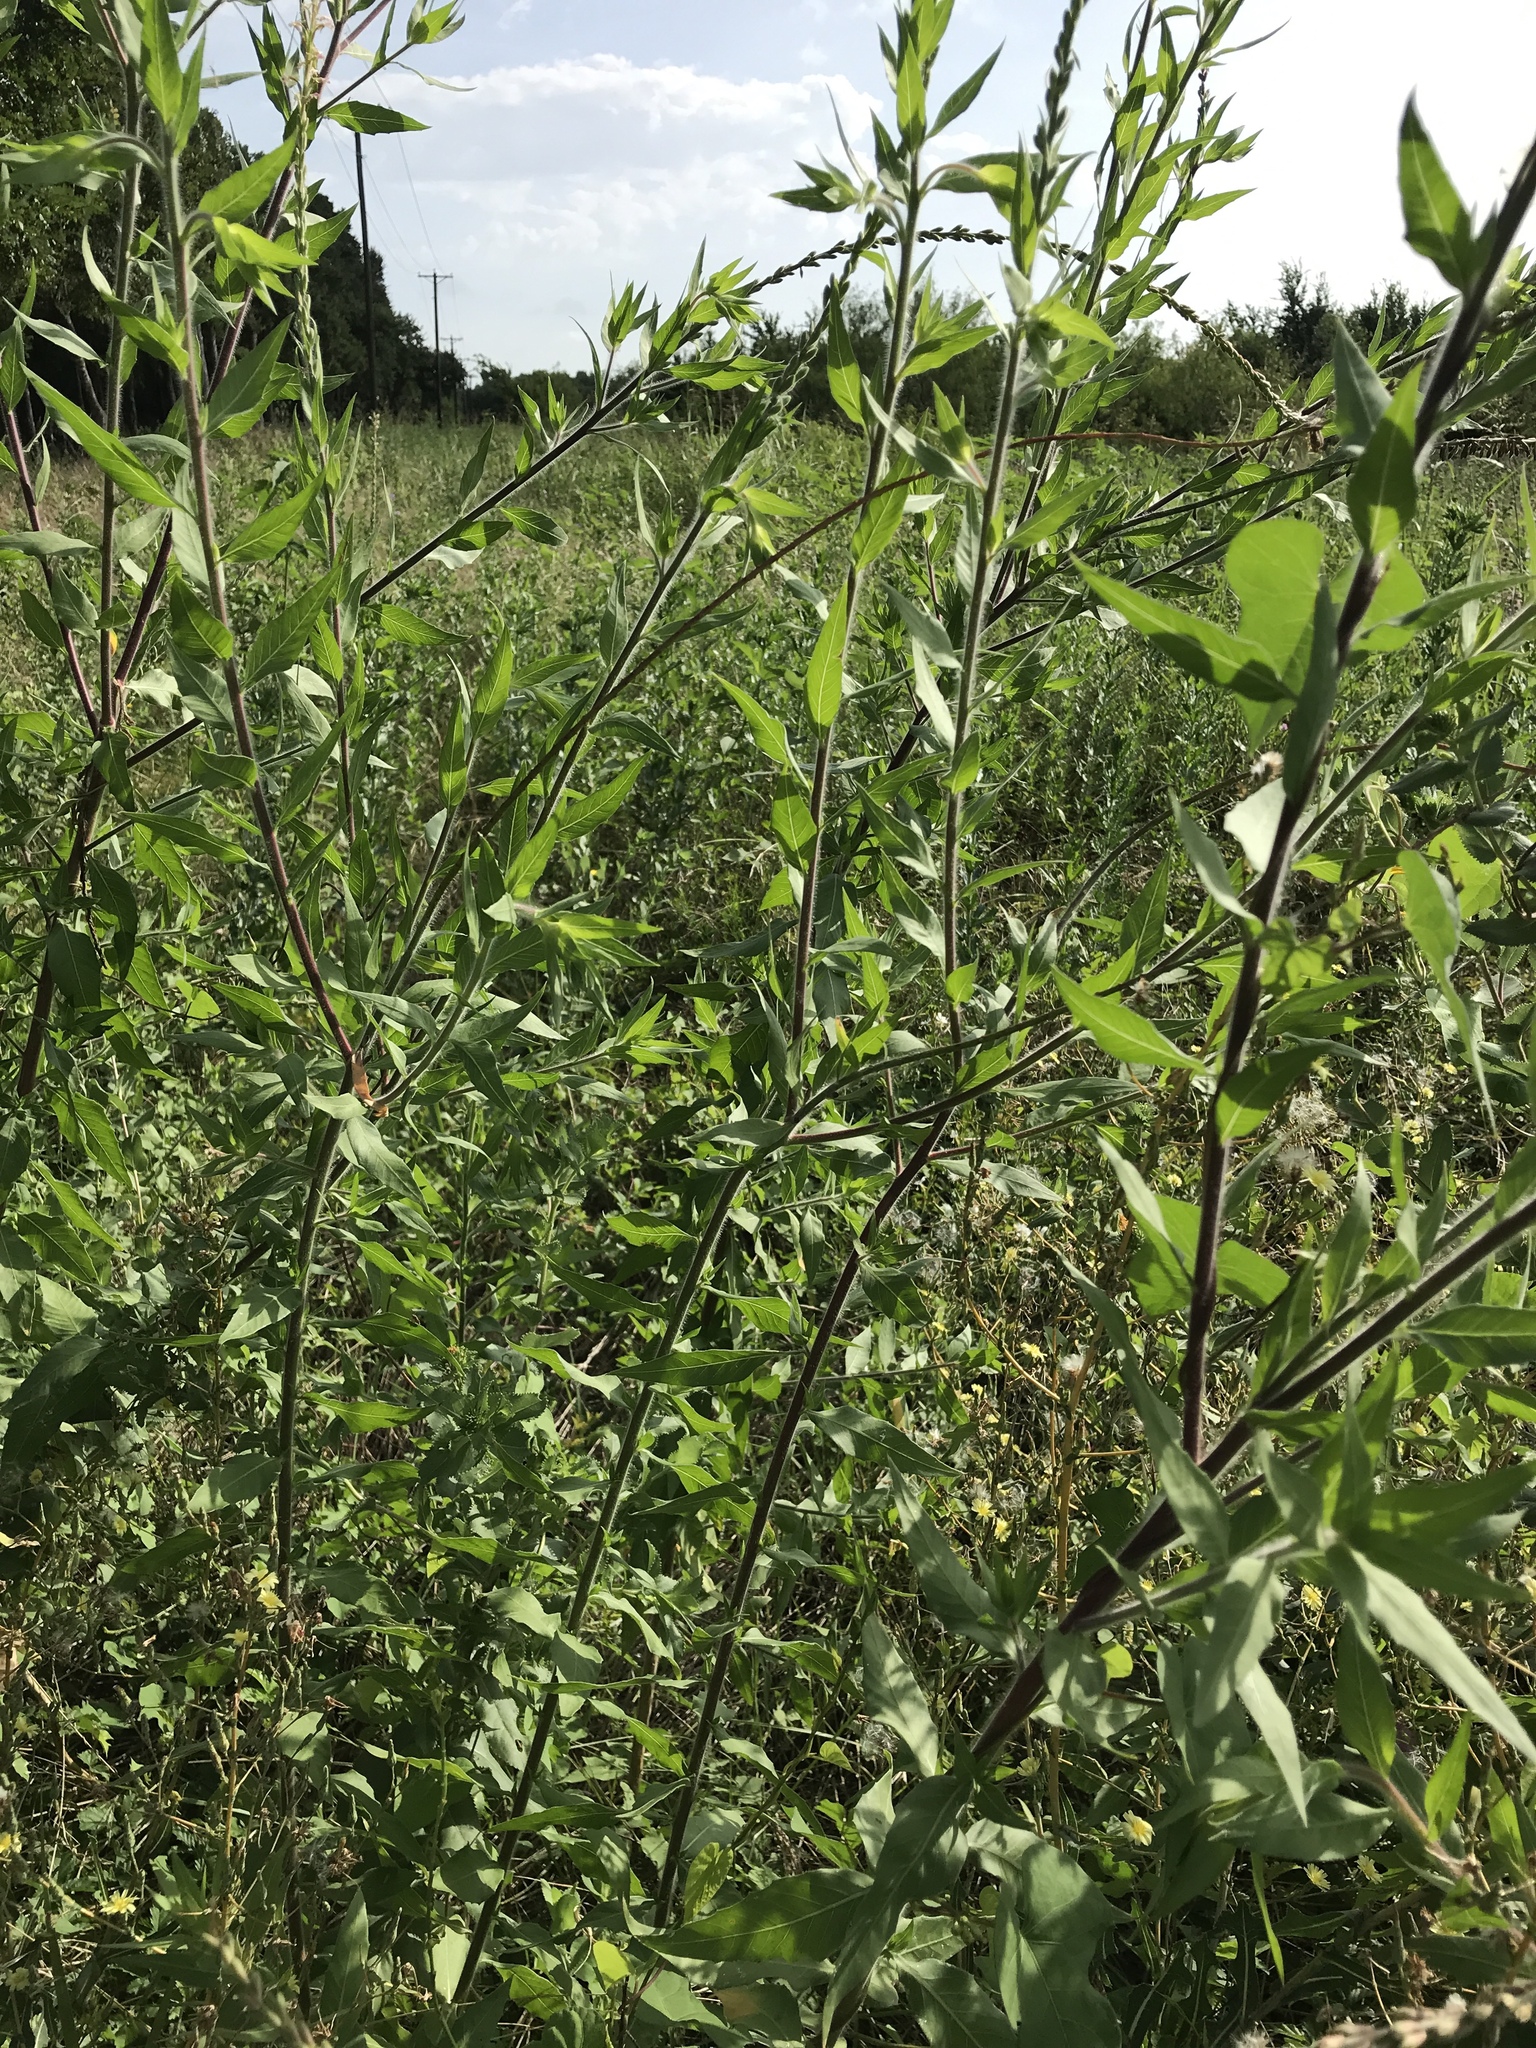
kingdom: Plantae
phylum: Tracheophyta
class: Magnoliopsida
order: Myrtales
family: Onagraceae
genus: Oenothera
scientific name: Oenothera curtiflora
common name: Velvetweed
